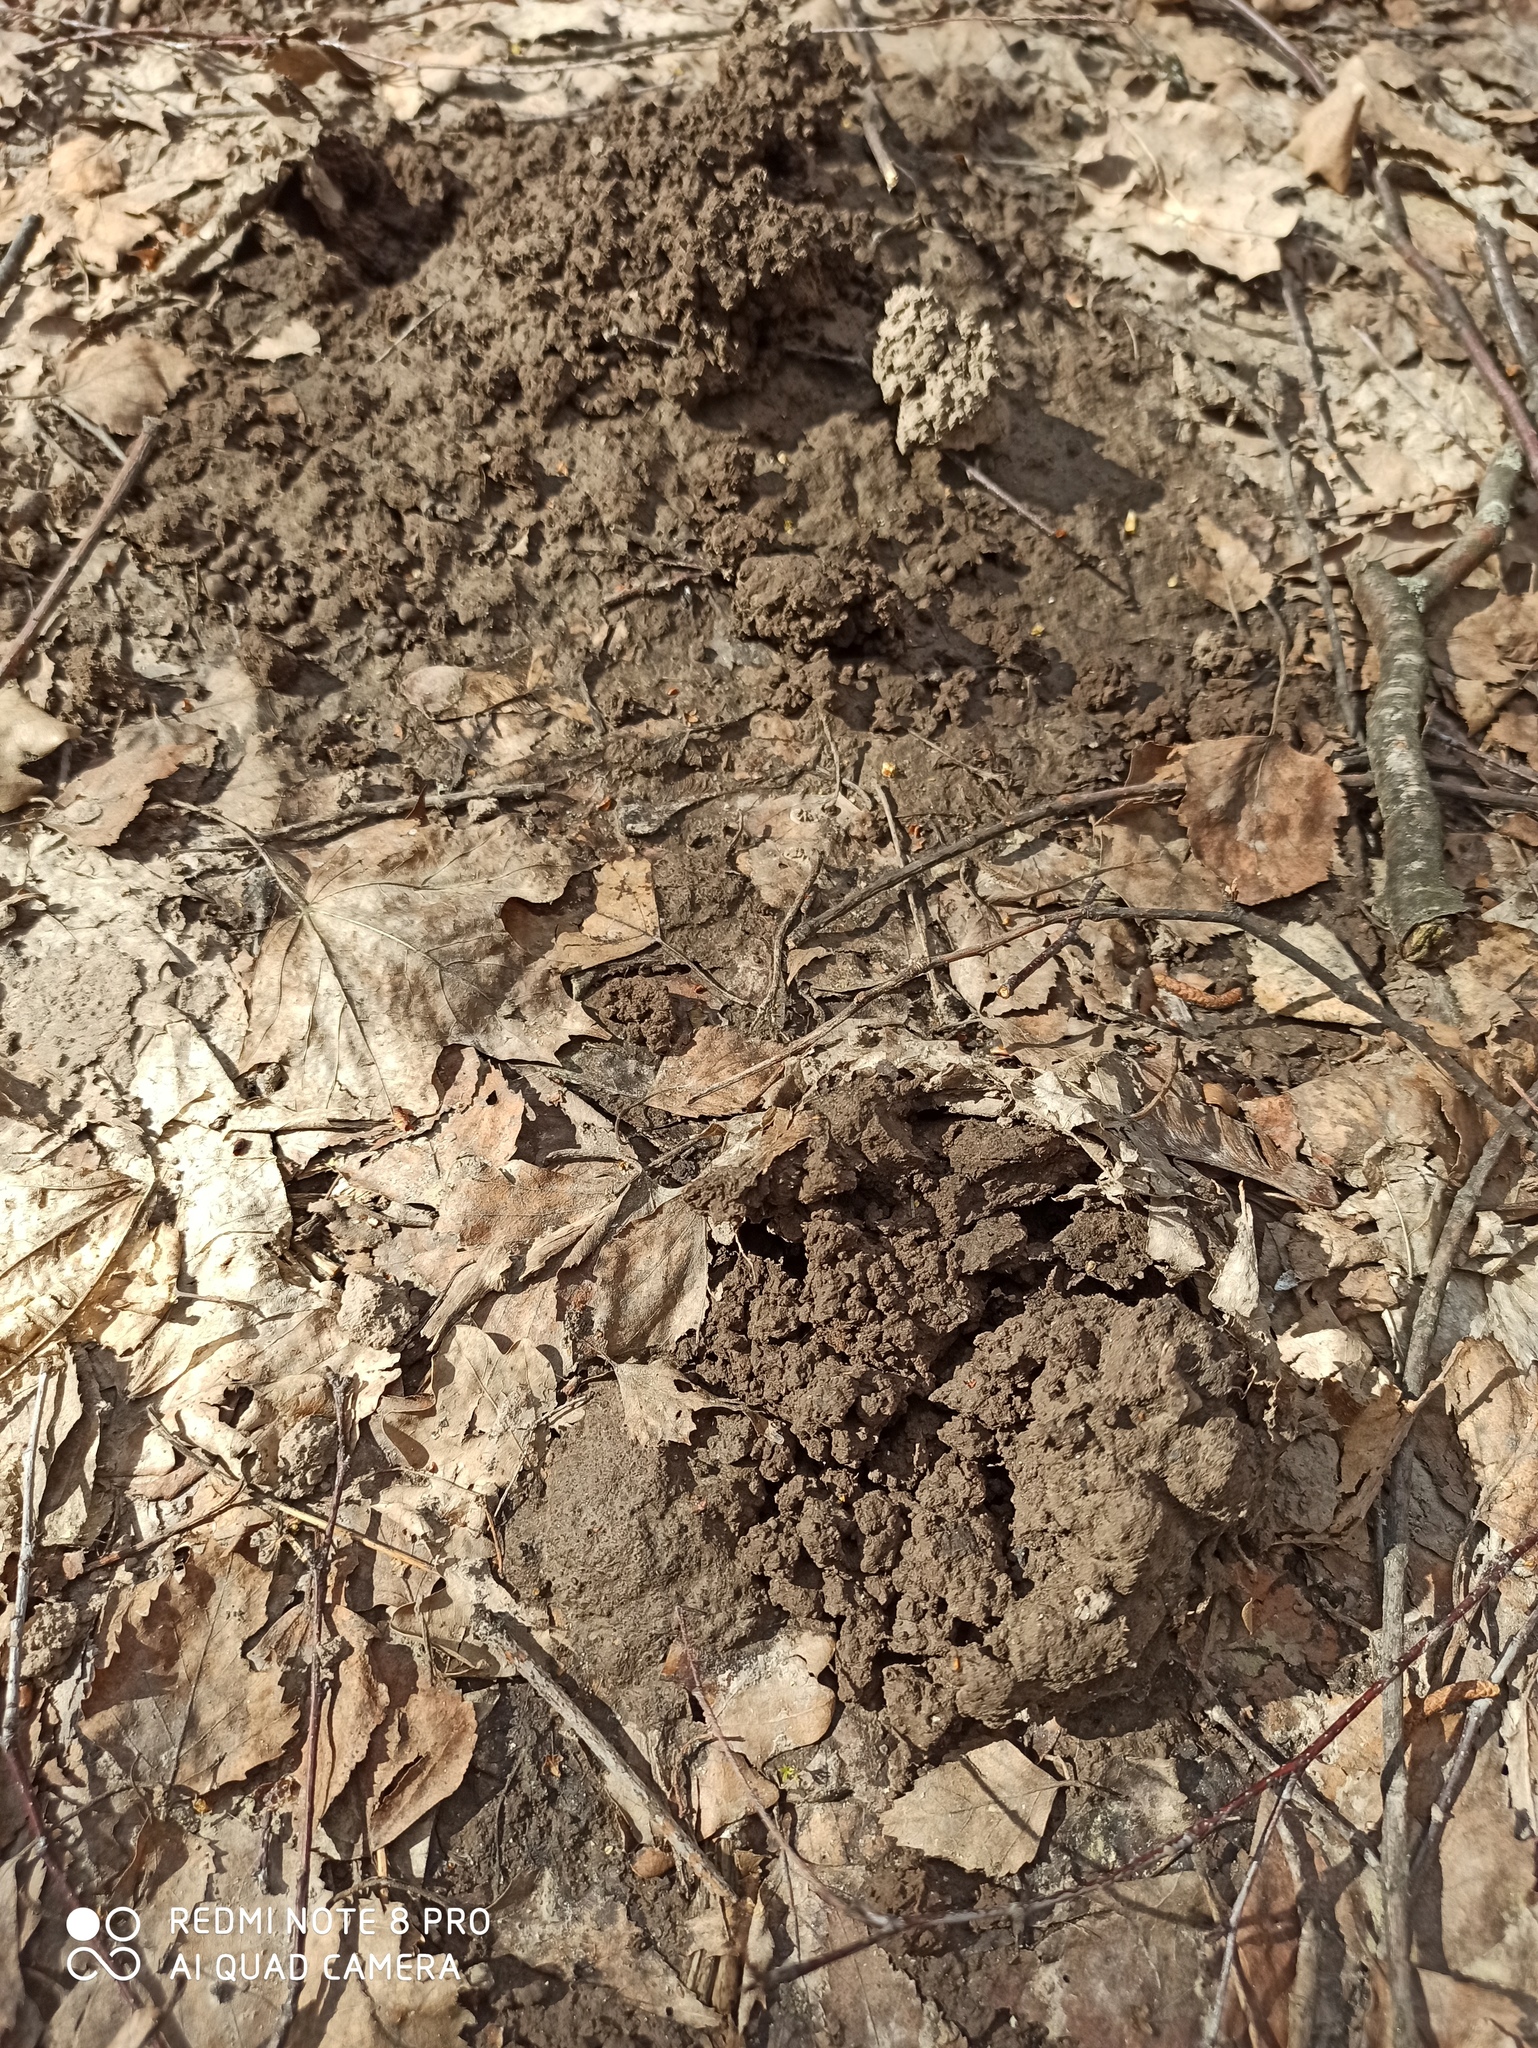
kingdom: Animalia
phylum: Chordata
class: Mammalia
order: Soricomorpha
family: Talpidae
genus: Talpa
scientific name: Talpa europaea
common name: European mole
